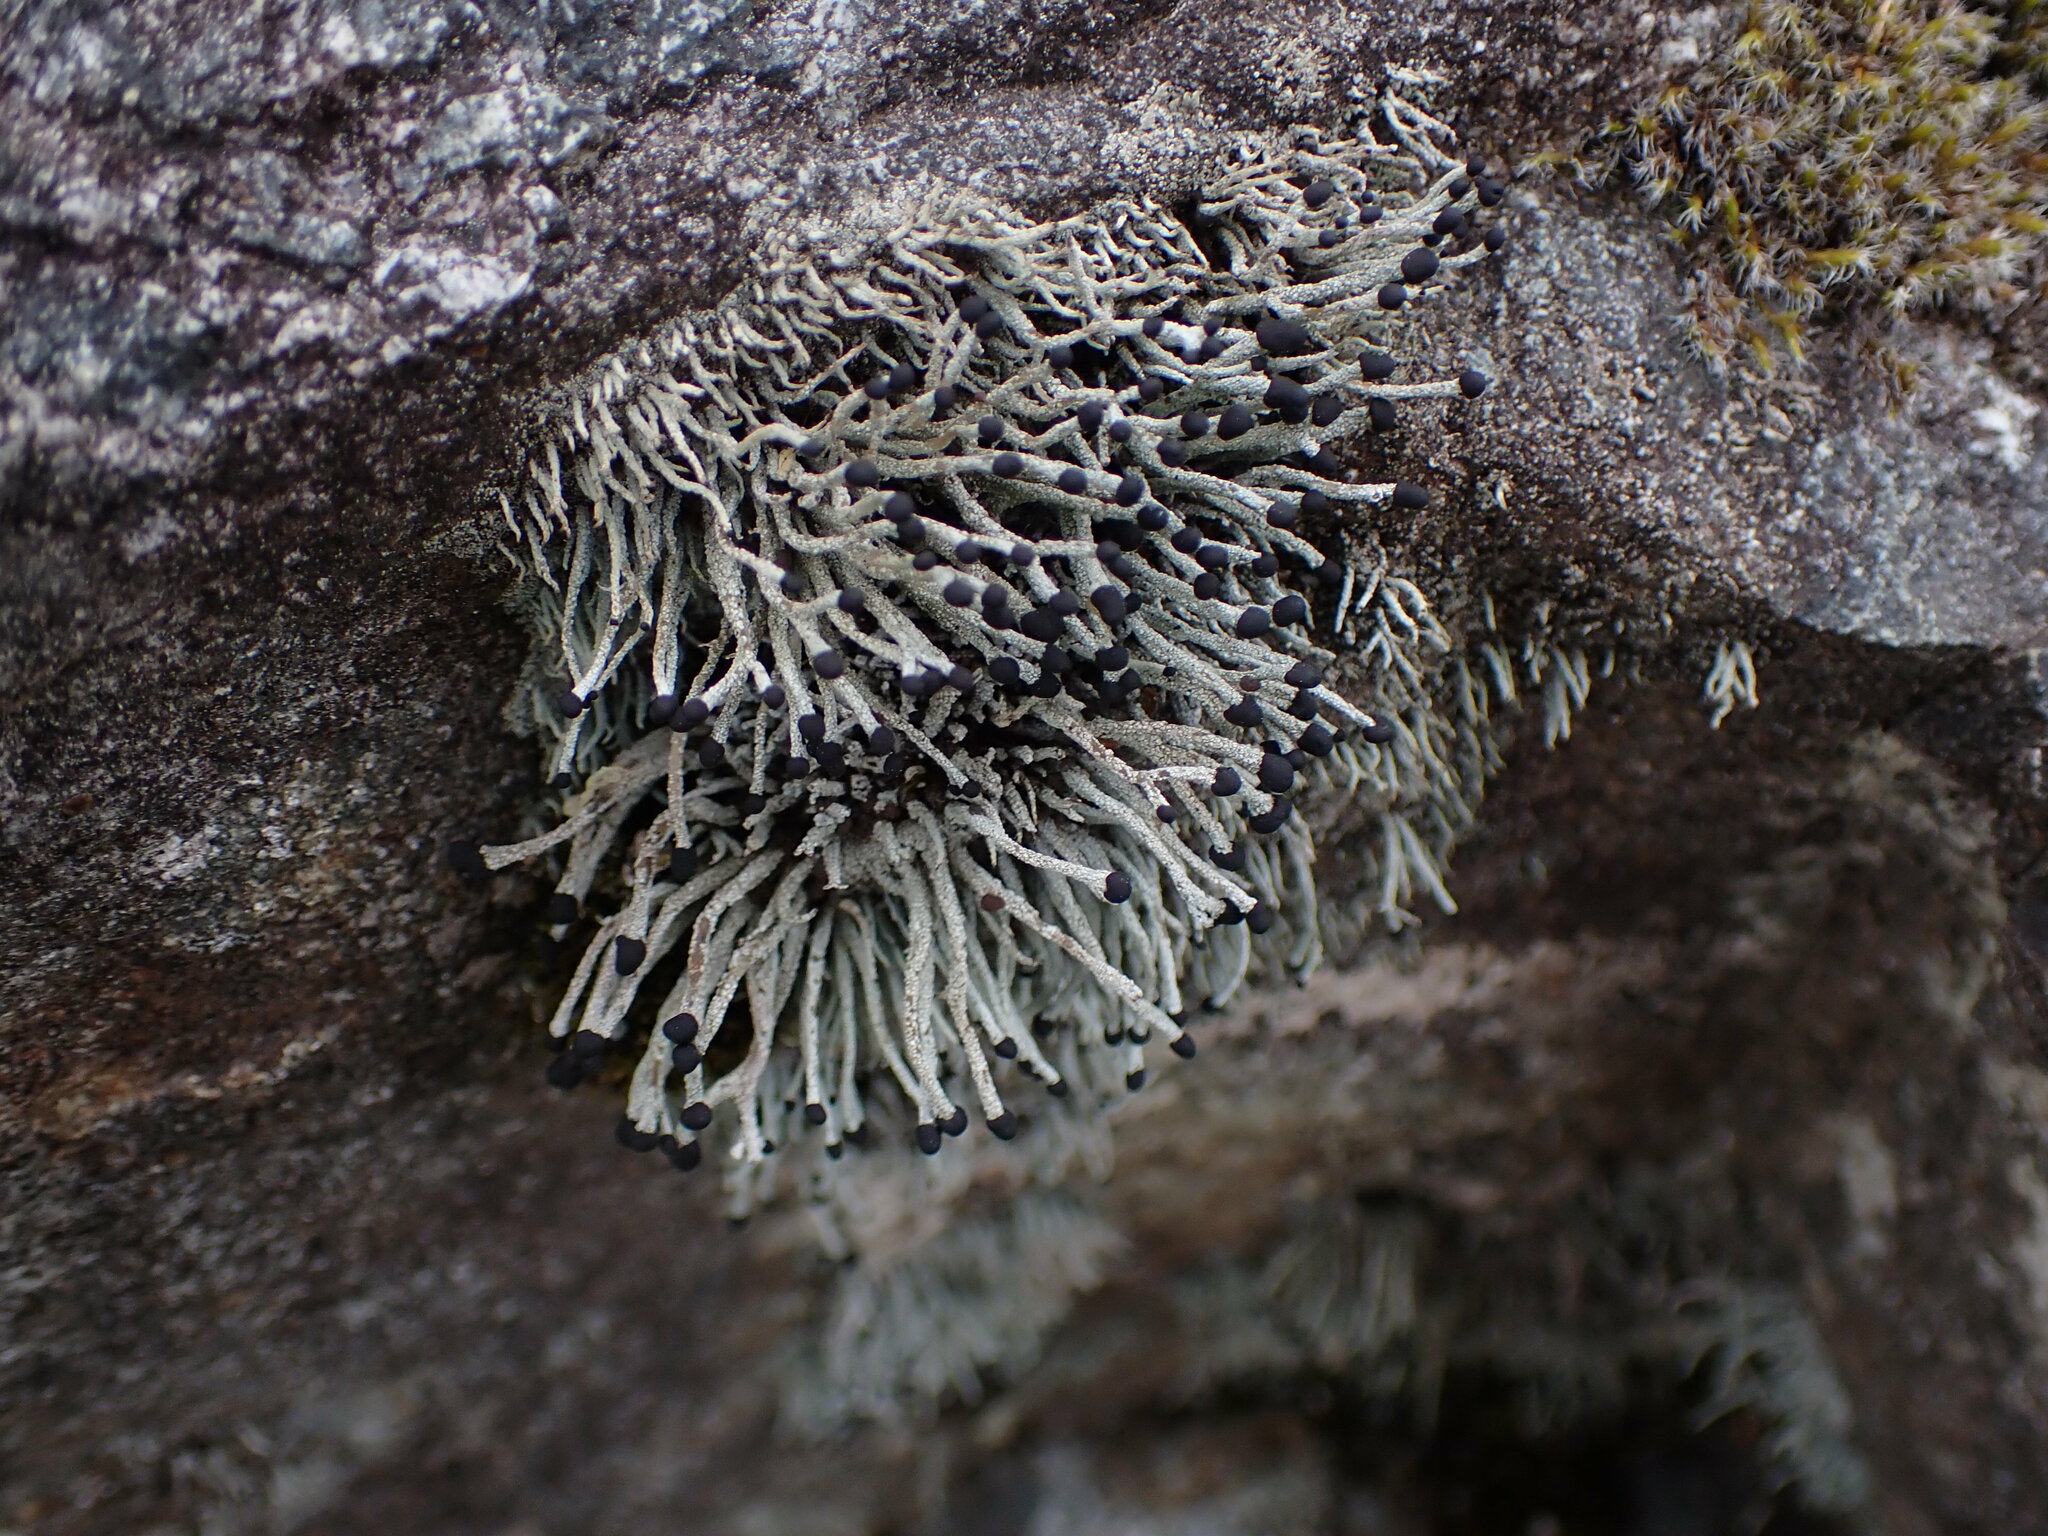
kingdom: Fungi
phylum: Ascomycota
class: Lecanoromycetes
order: Lecanorales
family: Cladoniaceae
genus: Pilophorus
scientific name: Pilophorus acicularis
